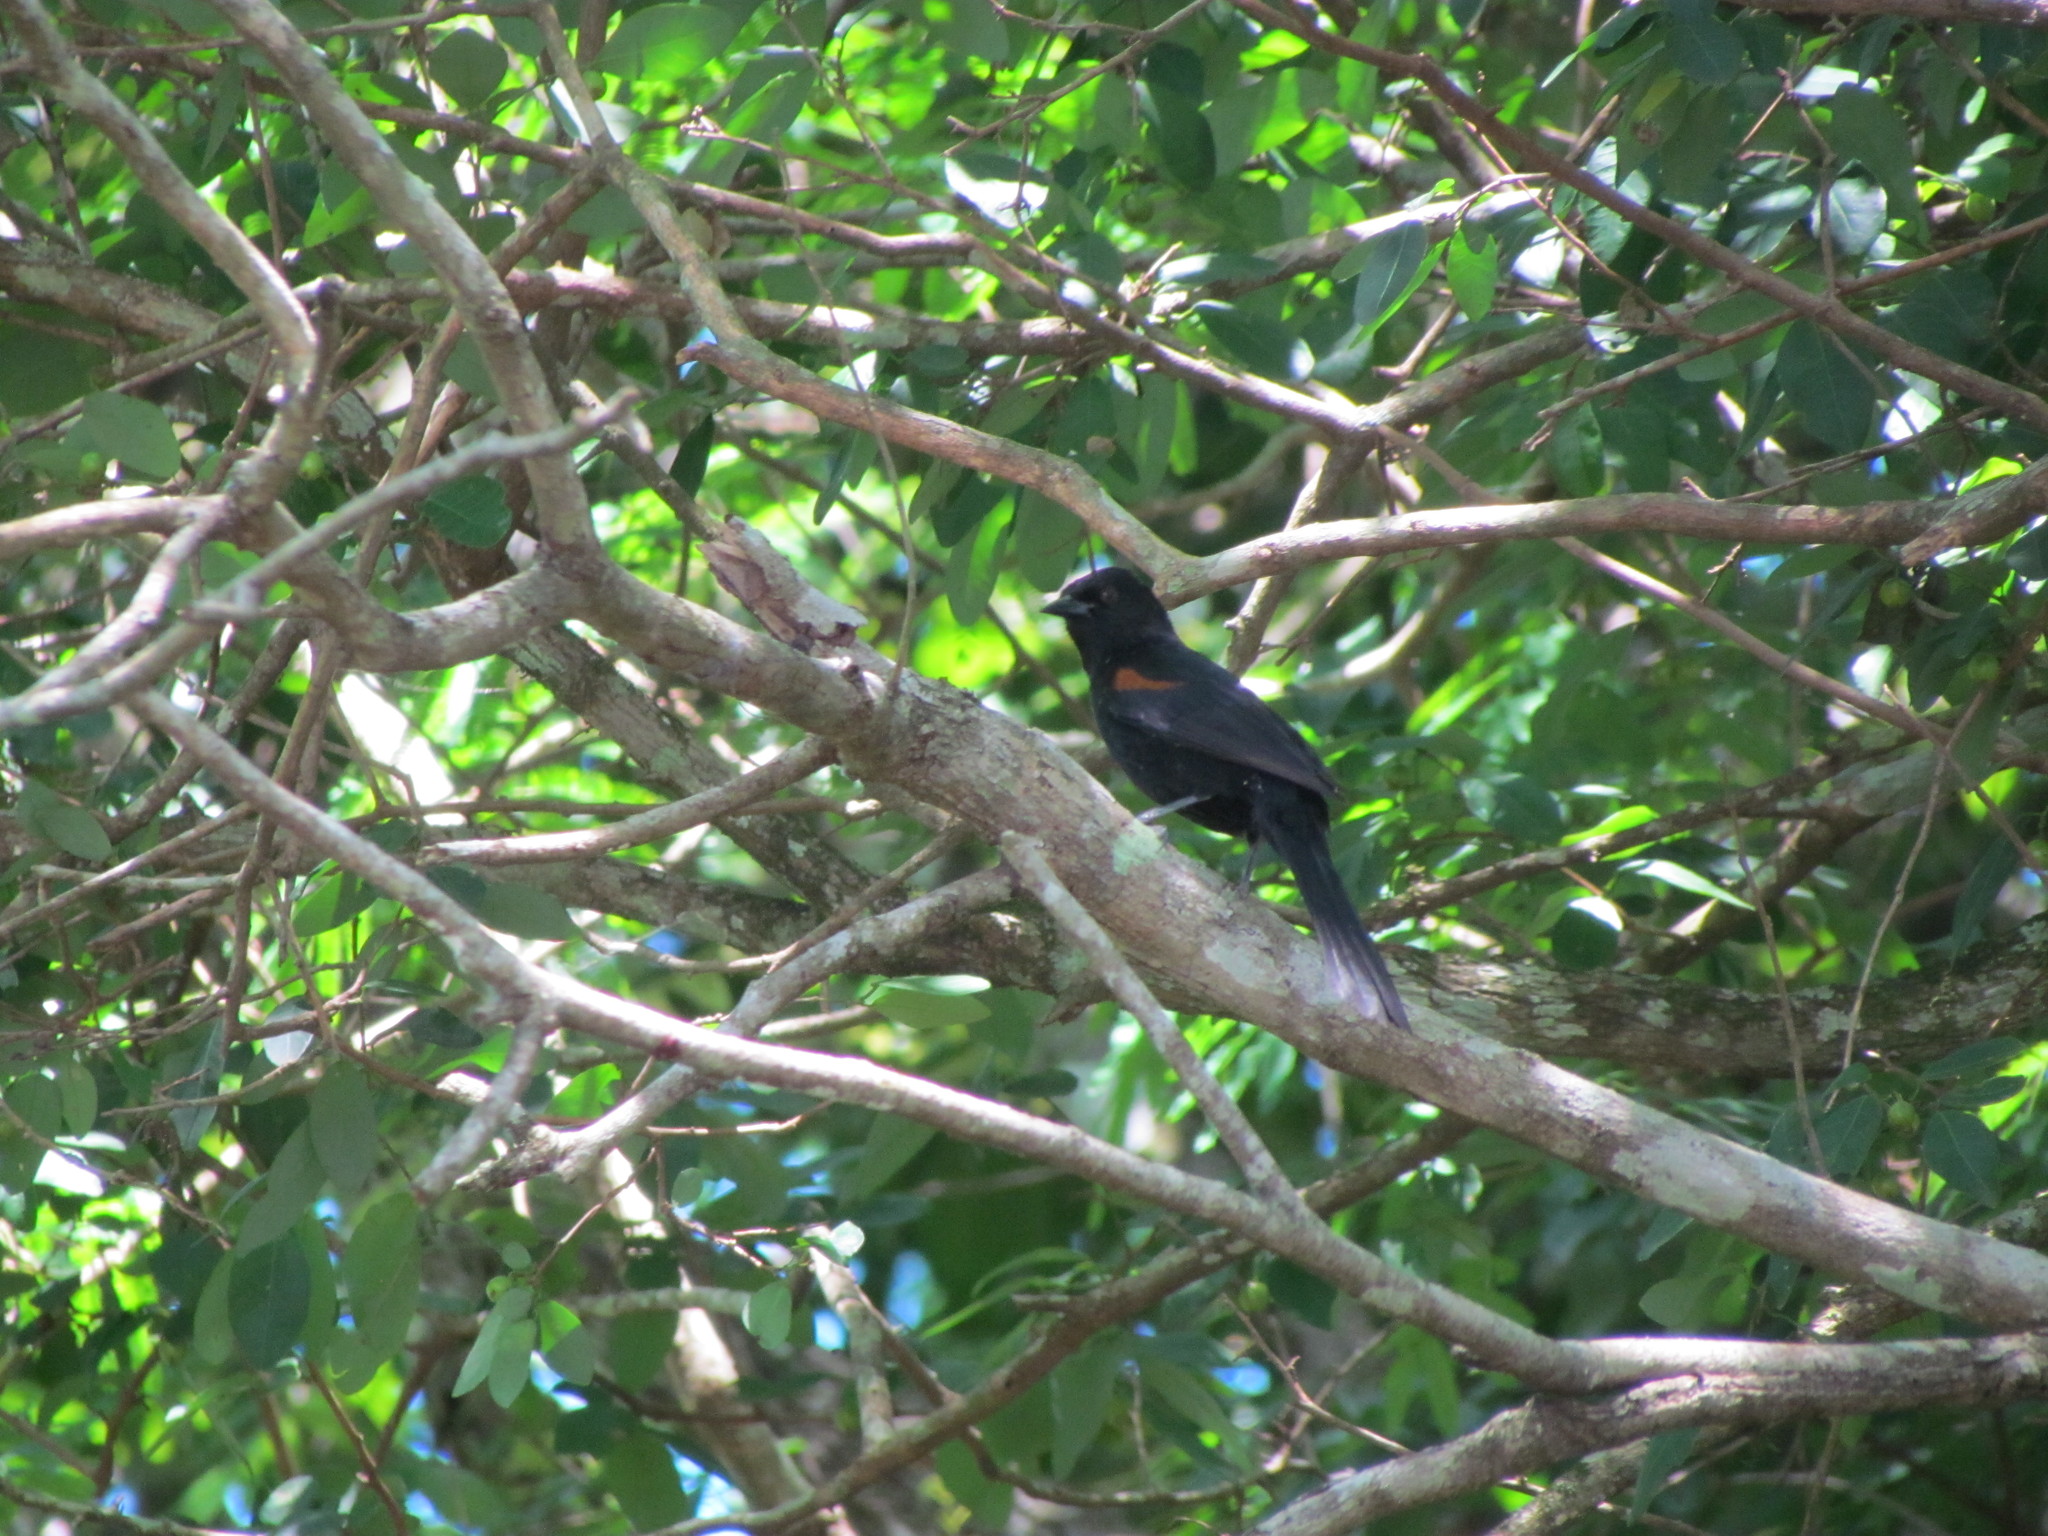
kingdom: Animalia
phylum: Chordata
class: Aves
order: Passeriformes
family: Icteridae
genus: Icterus
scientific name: Icterus cayanensis
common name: Epaulet oriole
